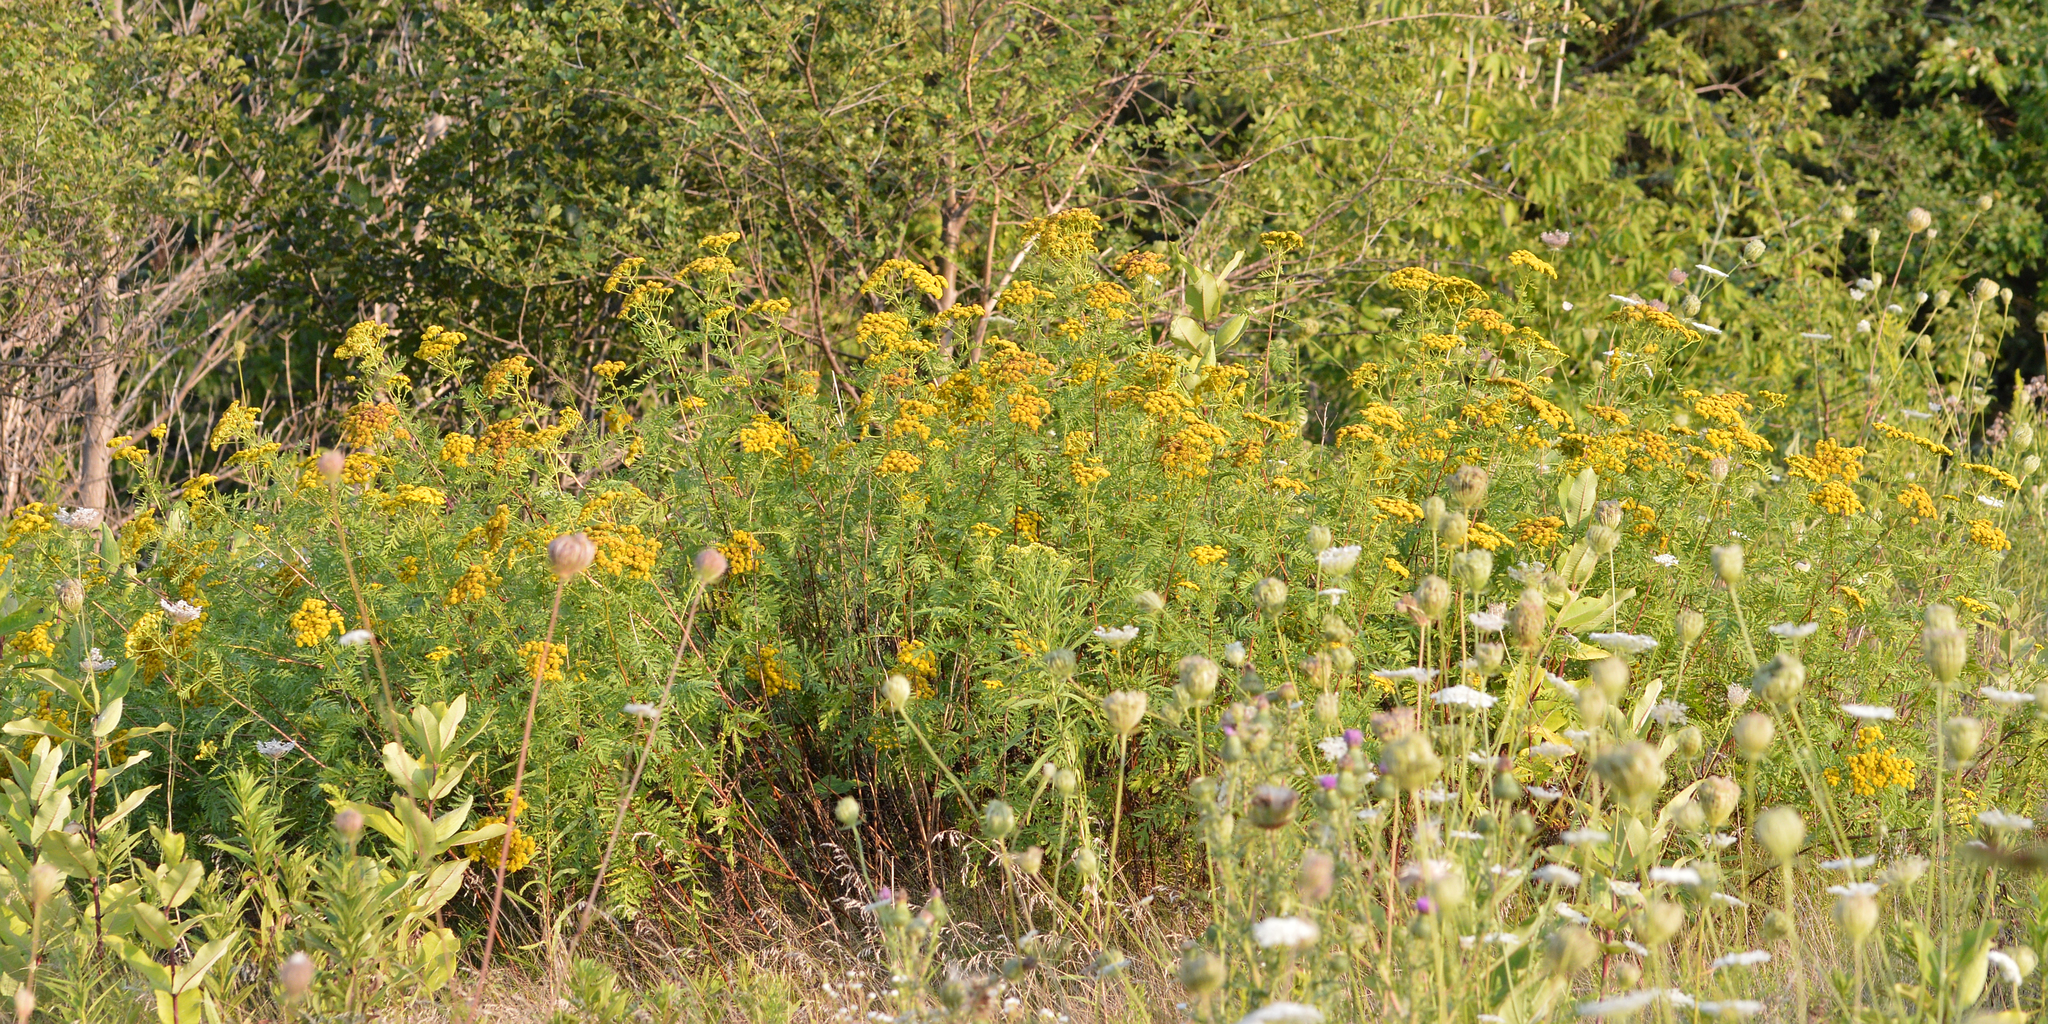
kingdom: Plantae
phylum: Tracheophyta
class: Magnoliopsida
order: Asterales
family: Asteraceae
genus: Tanacetum
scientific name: Tanacetum vulgare
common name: Common tansy
